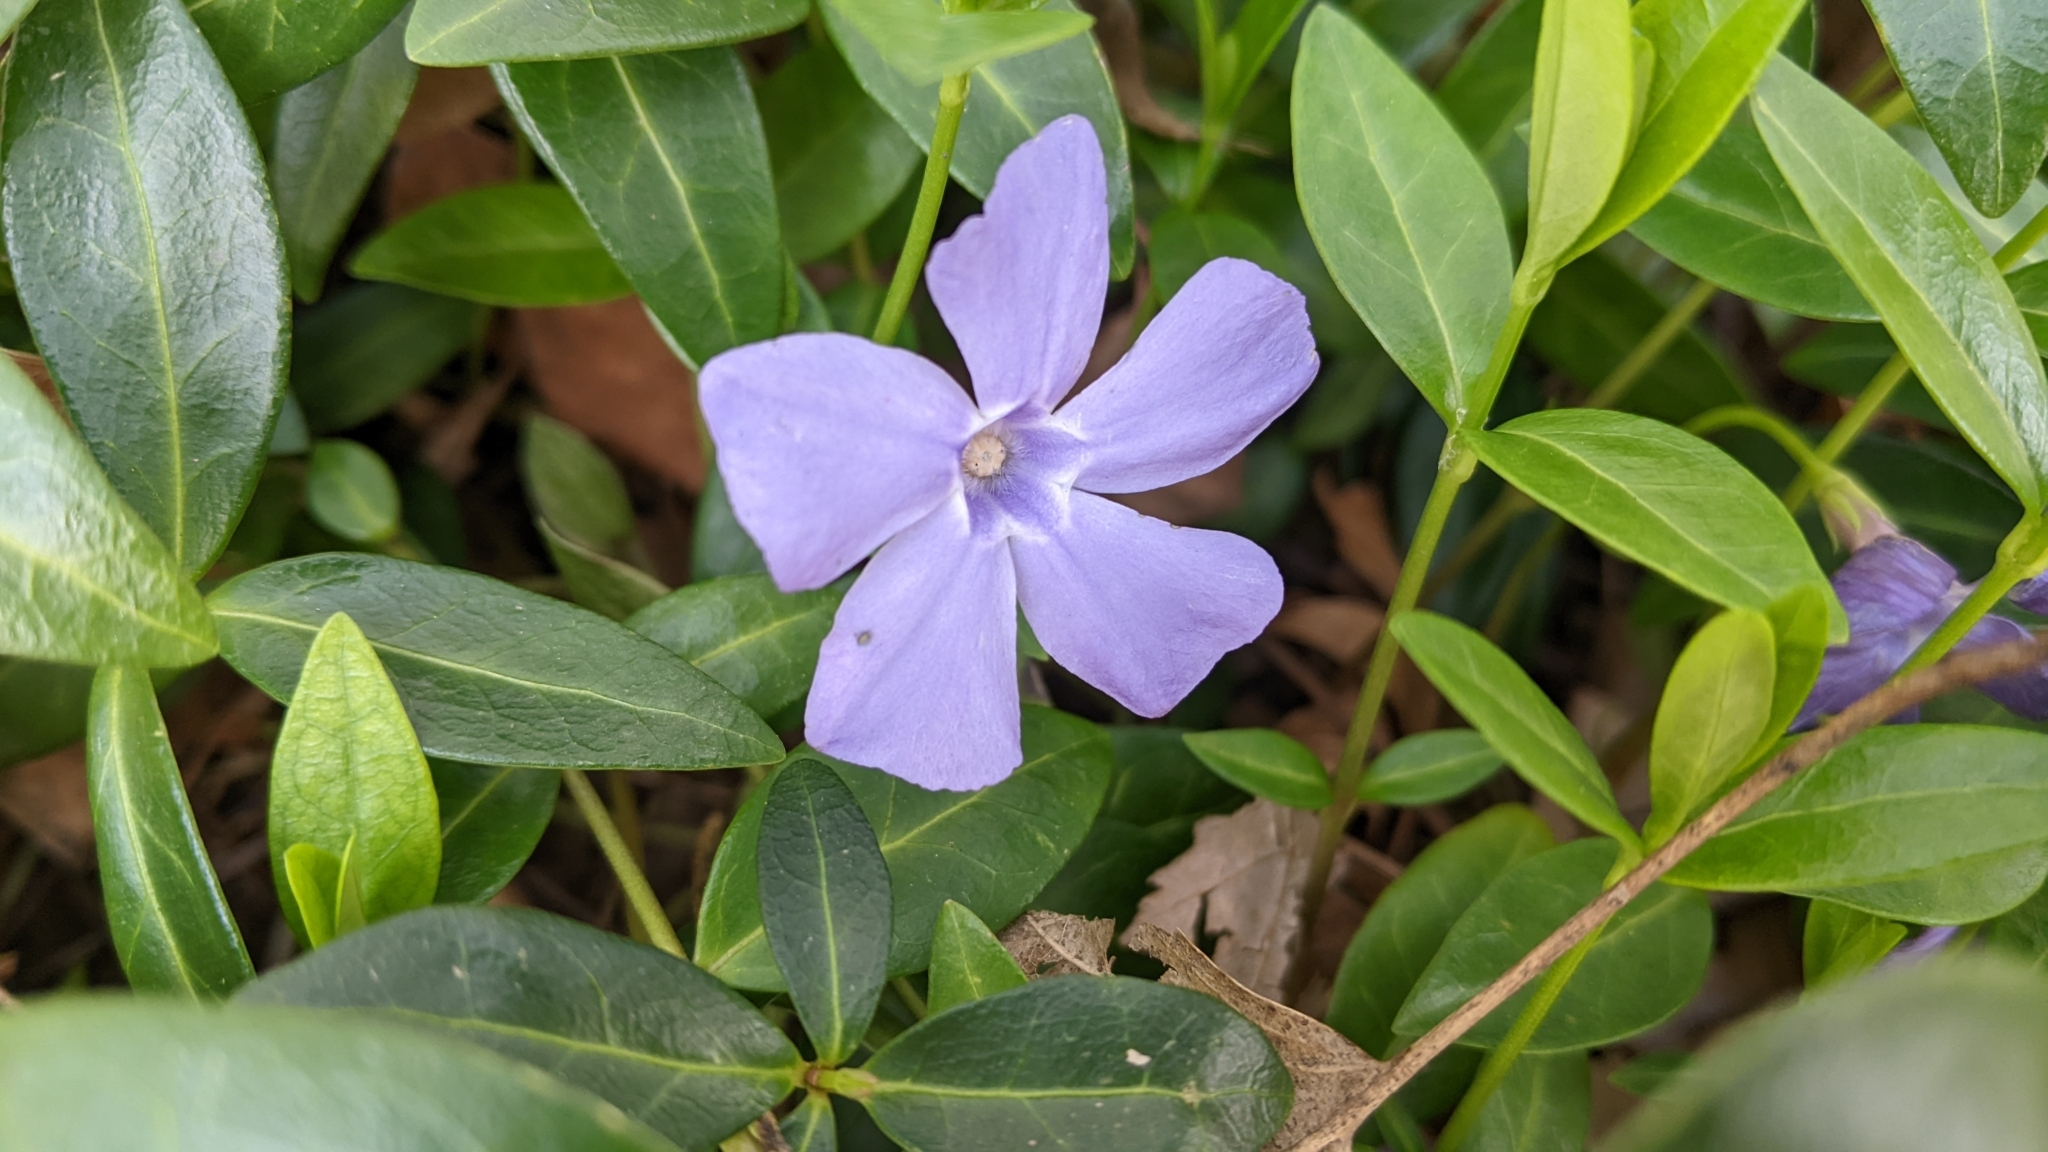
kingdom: Plantae
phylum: Tracheophyta
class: Magnoliopsida
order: Gentianales
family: Apocynaceae
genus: Vinca
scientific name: Vinca minor
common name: Lesser periwinkle
